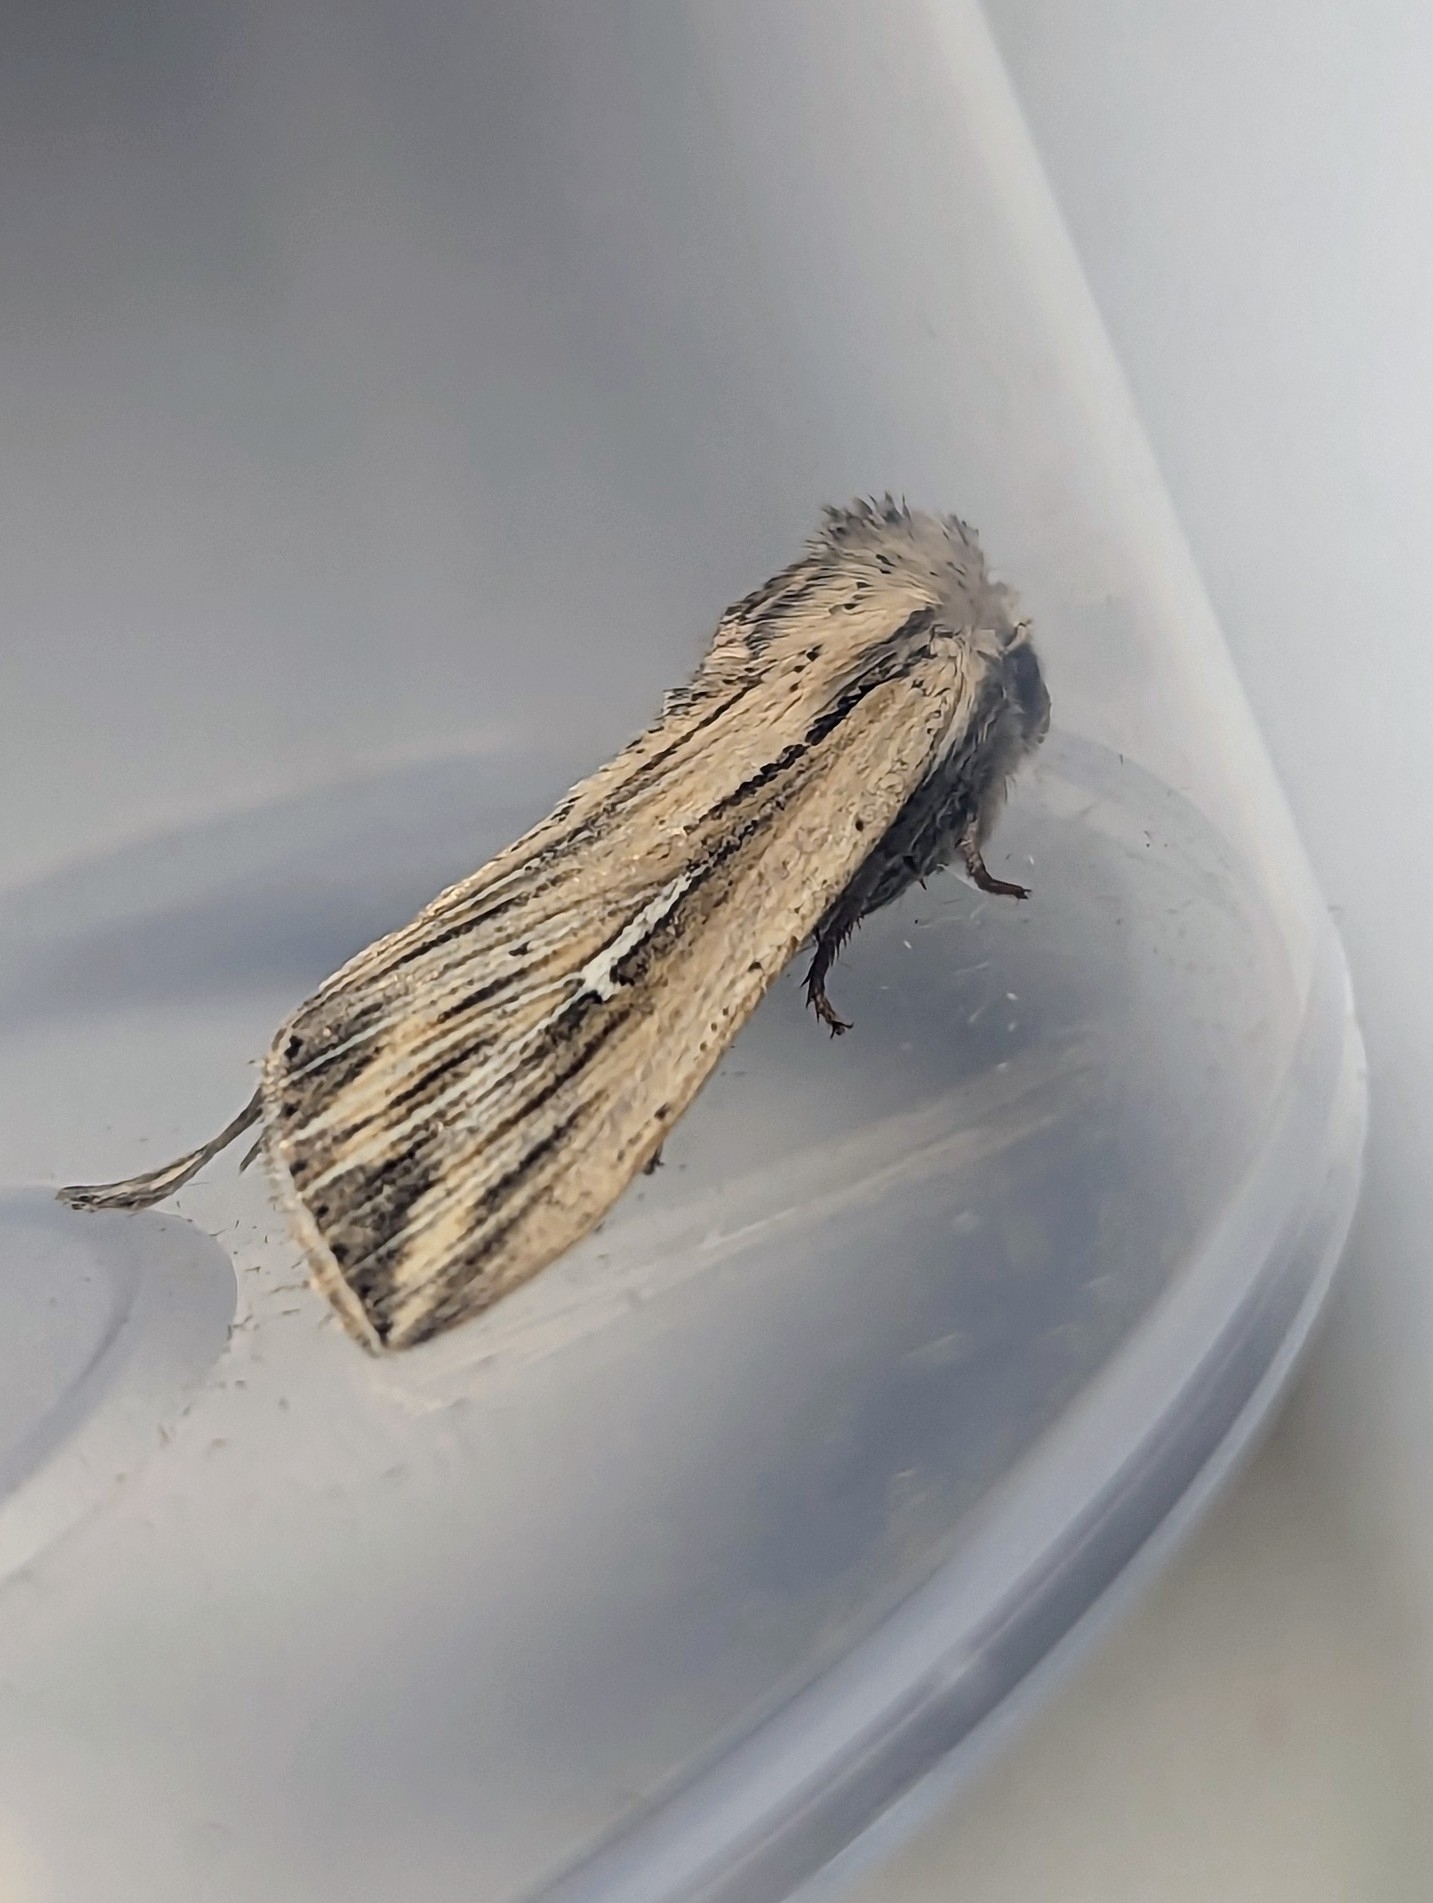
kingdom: Animalia
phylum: Arthropoda
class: Insecta
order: Lepidoptera
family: Noctuidae
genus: Mythimna
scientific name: Mythimna l-album
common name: L-album wainscot
